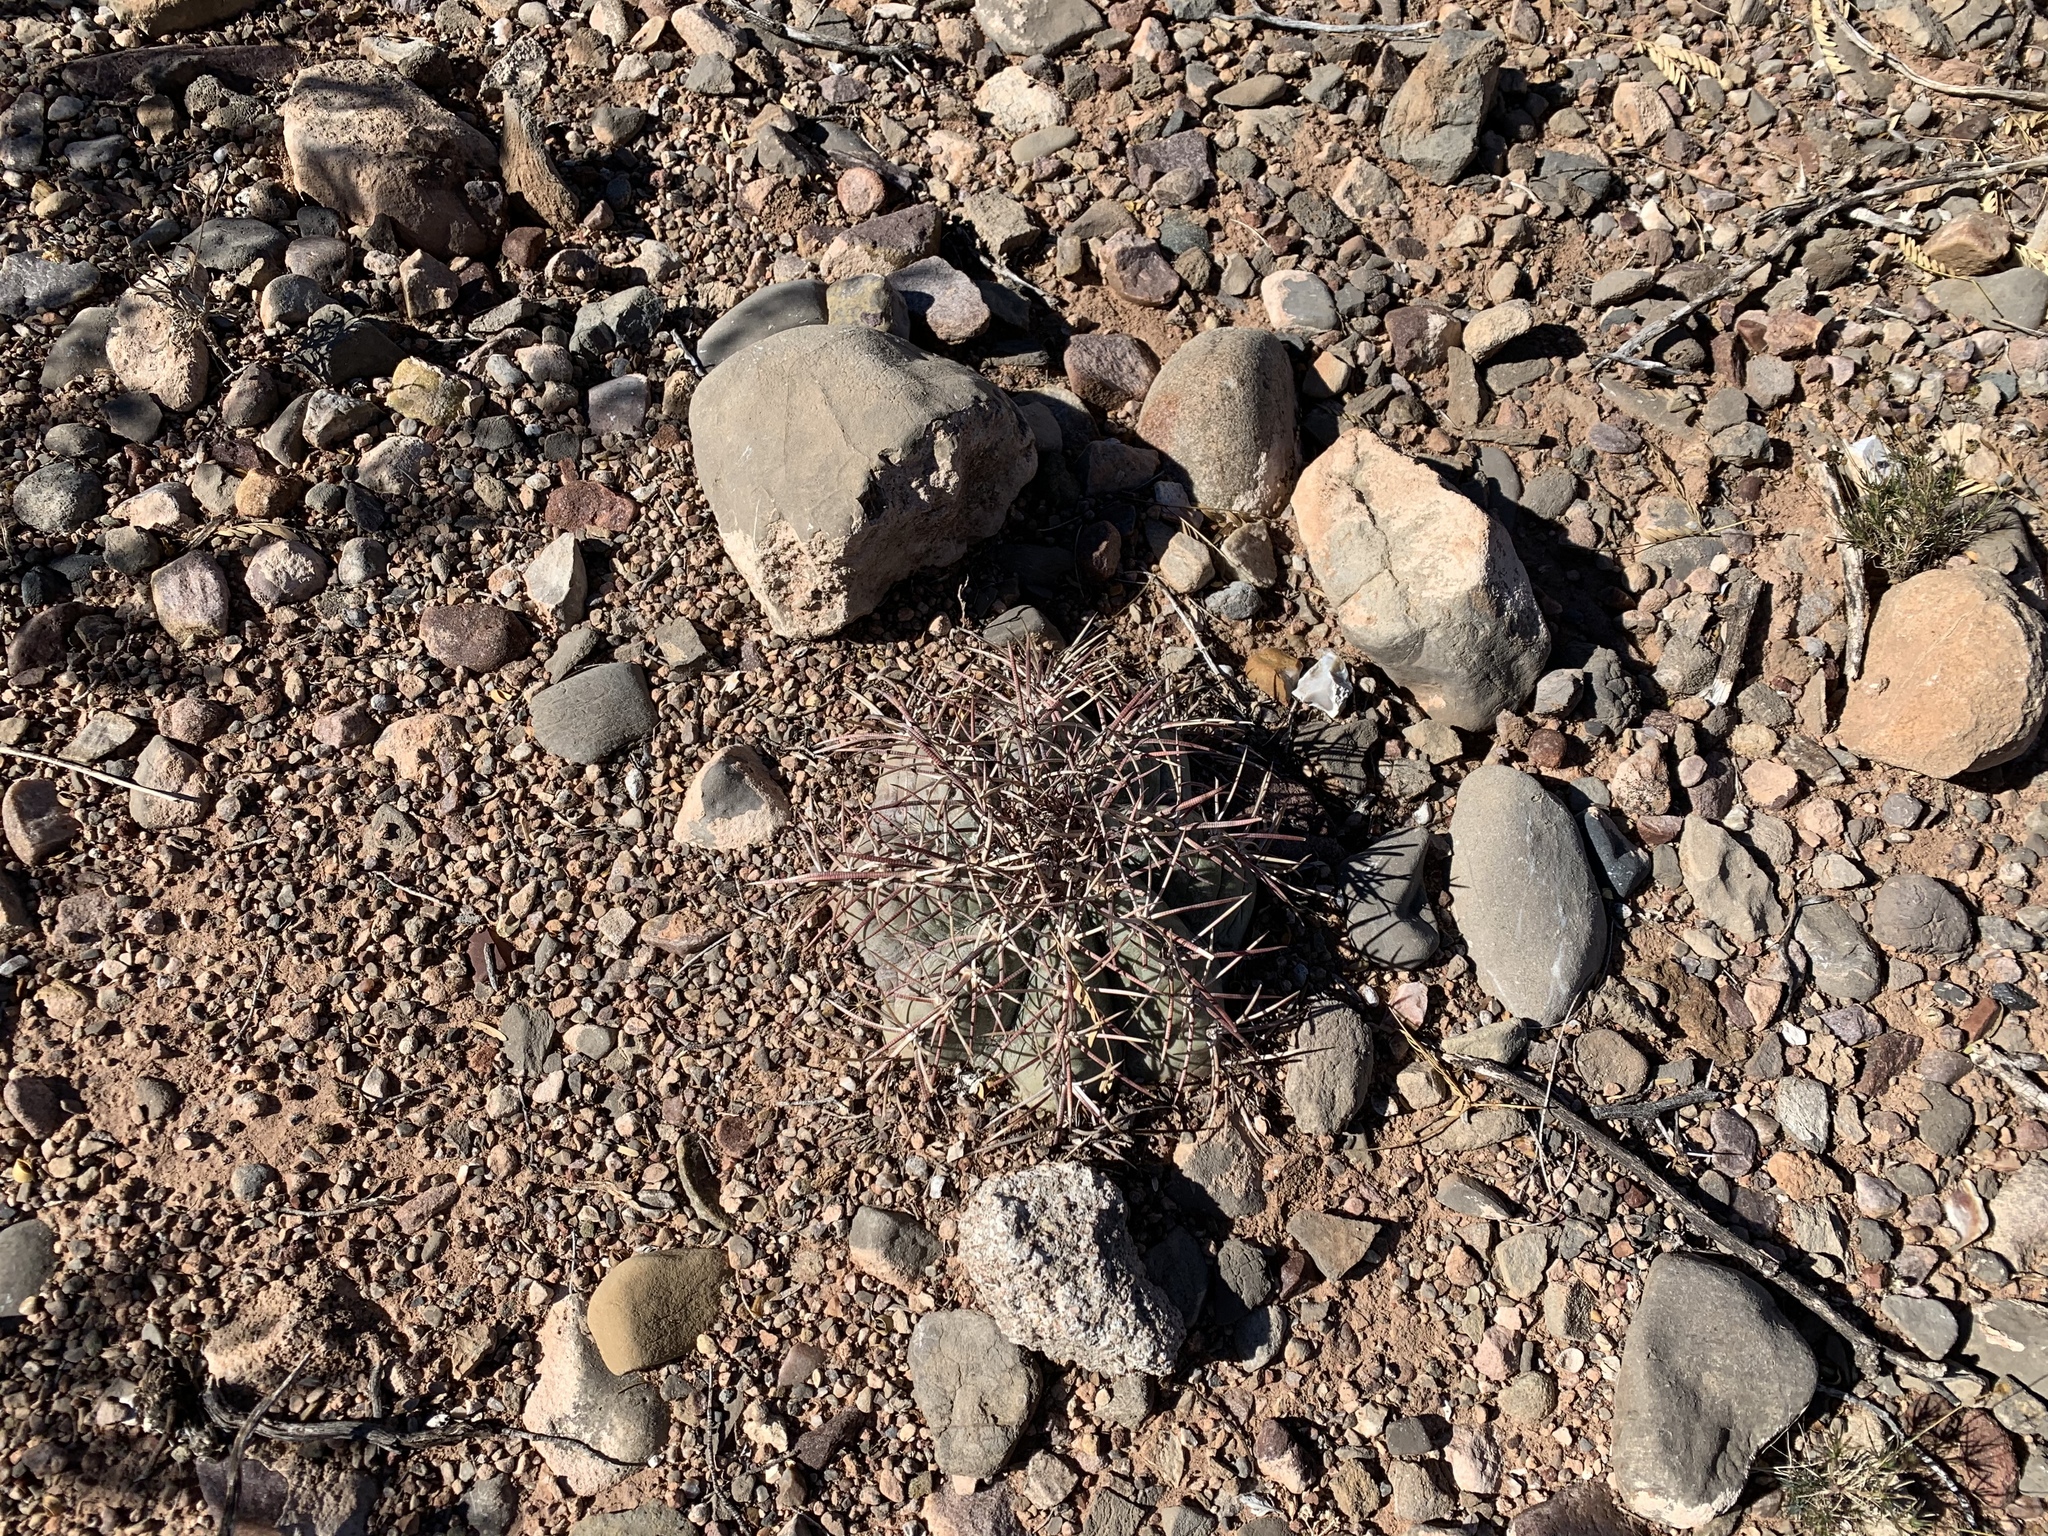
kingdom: Plantae
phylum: Tracheophyta
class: Magnoliopsida
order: Caryophyllales
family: Cactaceae
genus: Echinocactus
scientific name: Echinocactus horizonthalonius
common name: Devilshead
